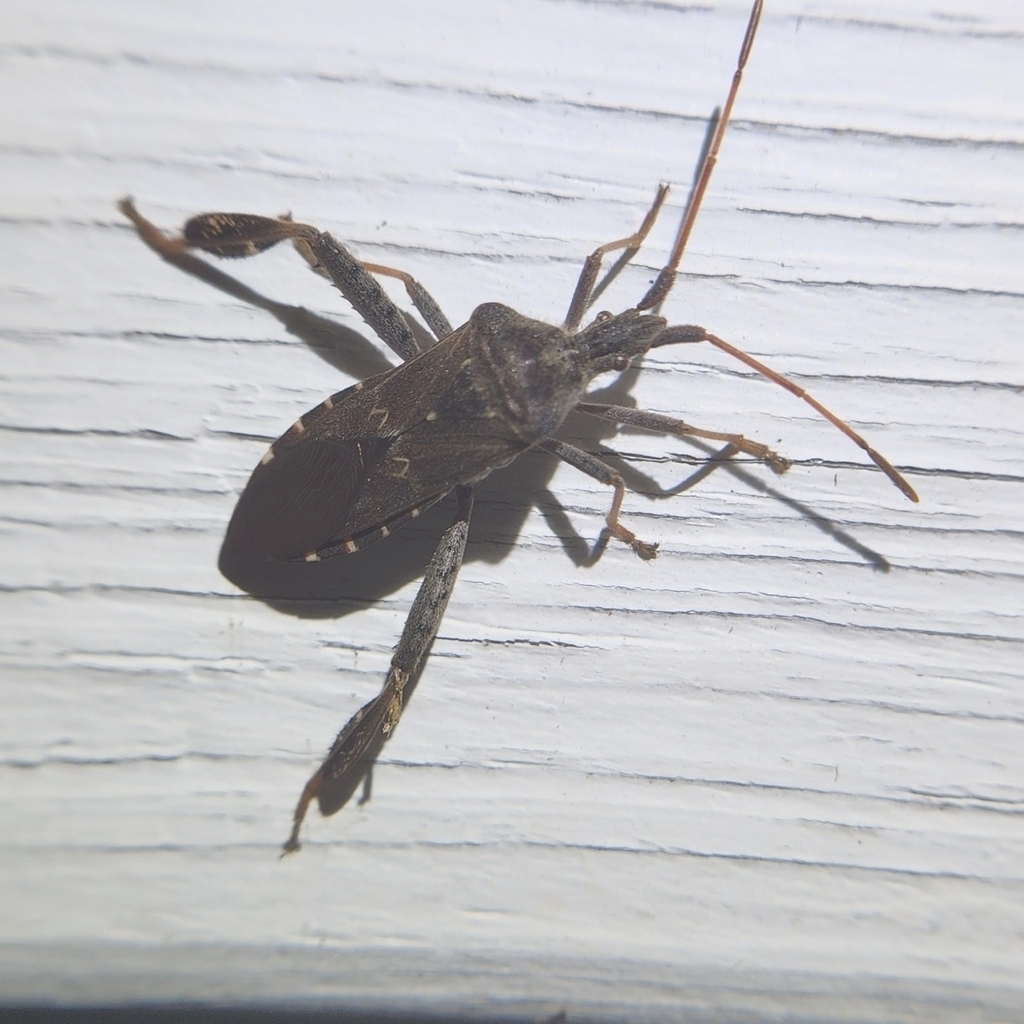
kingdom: Animalia
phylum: Arthropoda
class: Insecta
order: Hemiptera
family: Coreidae
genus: Leptoglossus
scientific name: Leptoglossus corculus
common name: Southern pine seed bug
